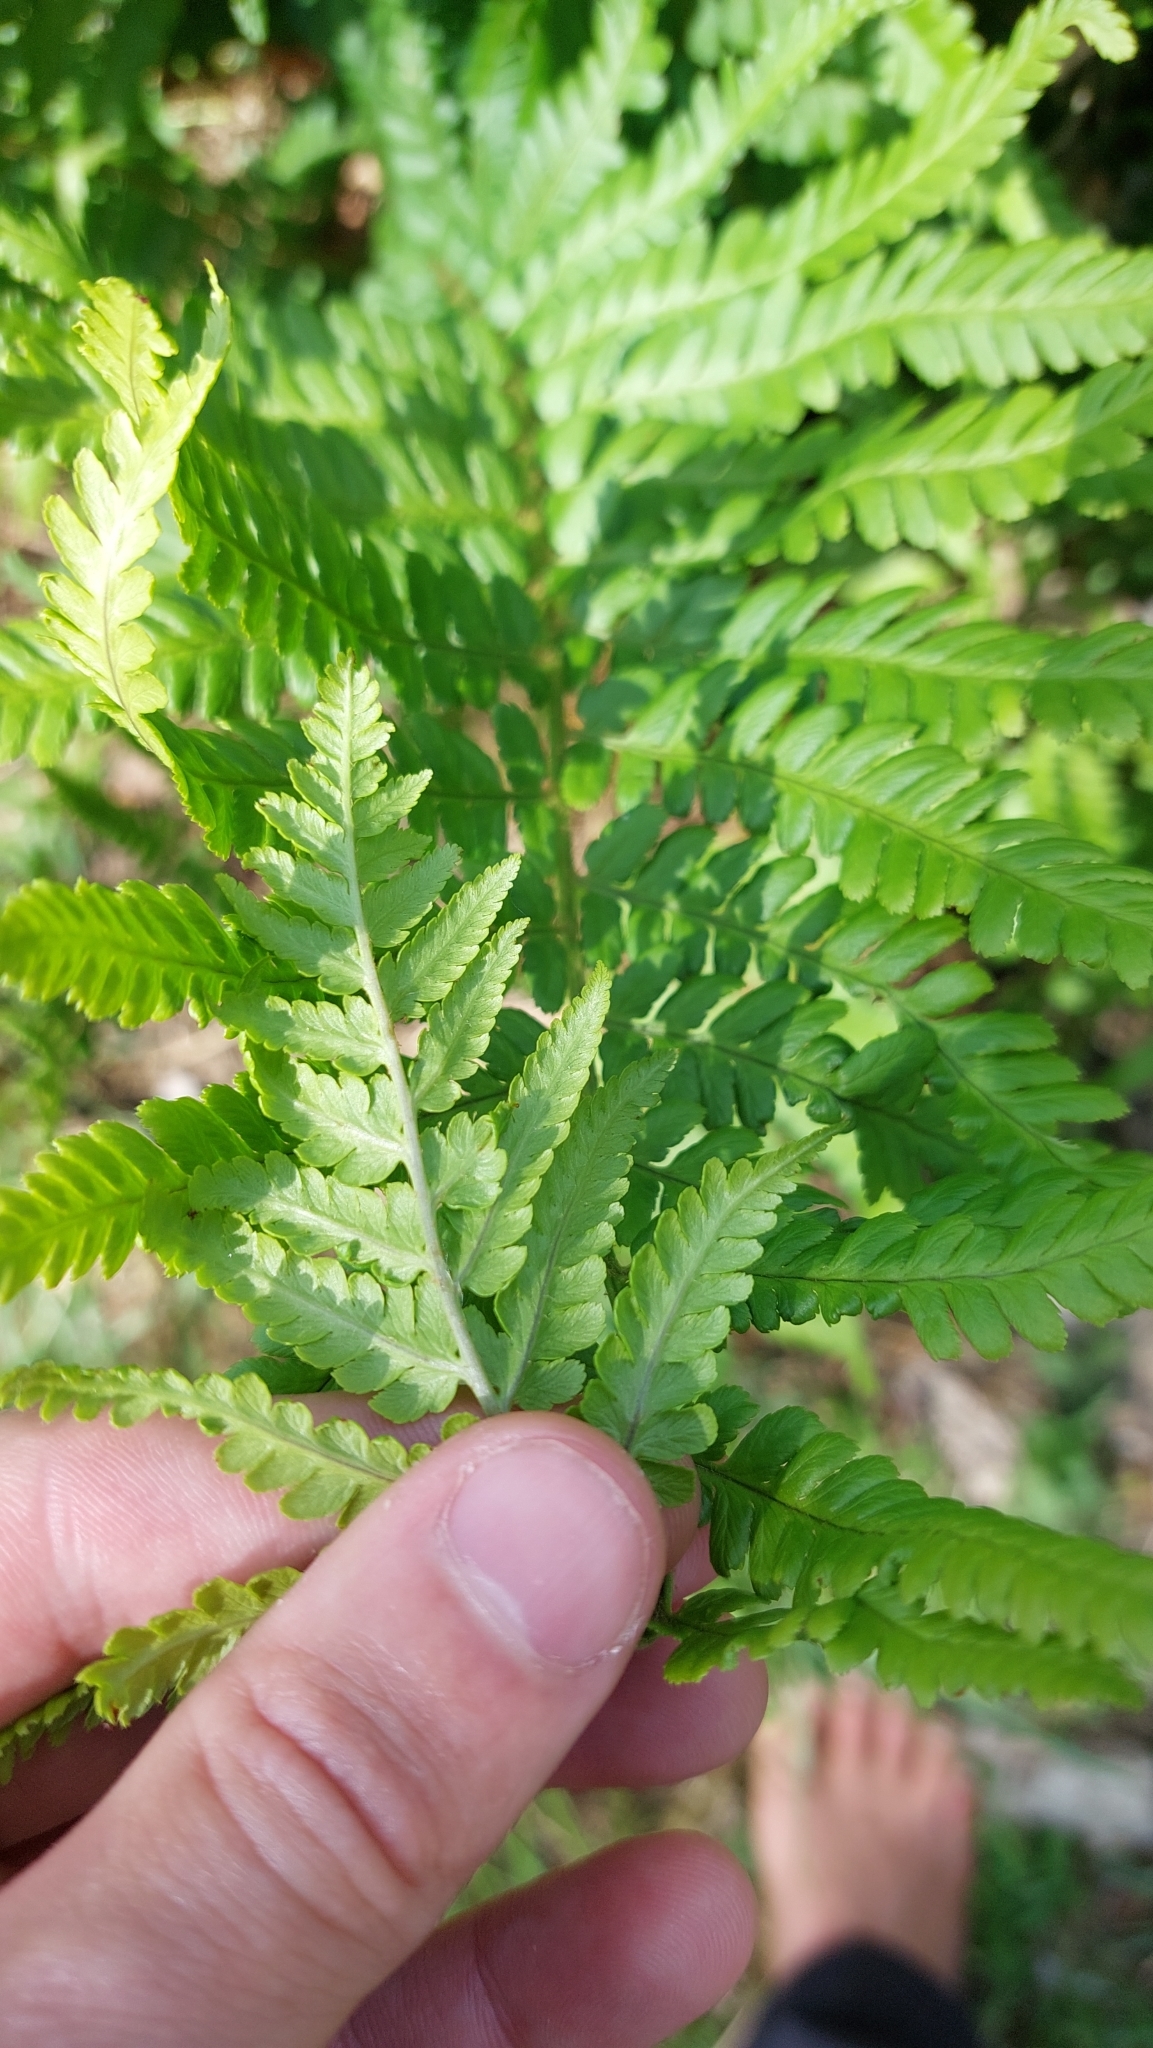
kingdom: Plantae
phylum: Tracheophyta
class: Polypodiopsida
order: Polypodiales
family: Dryopteridaceae
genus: Dryopteris
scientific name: Dryopteris filix-mas
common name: Male fern
